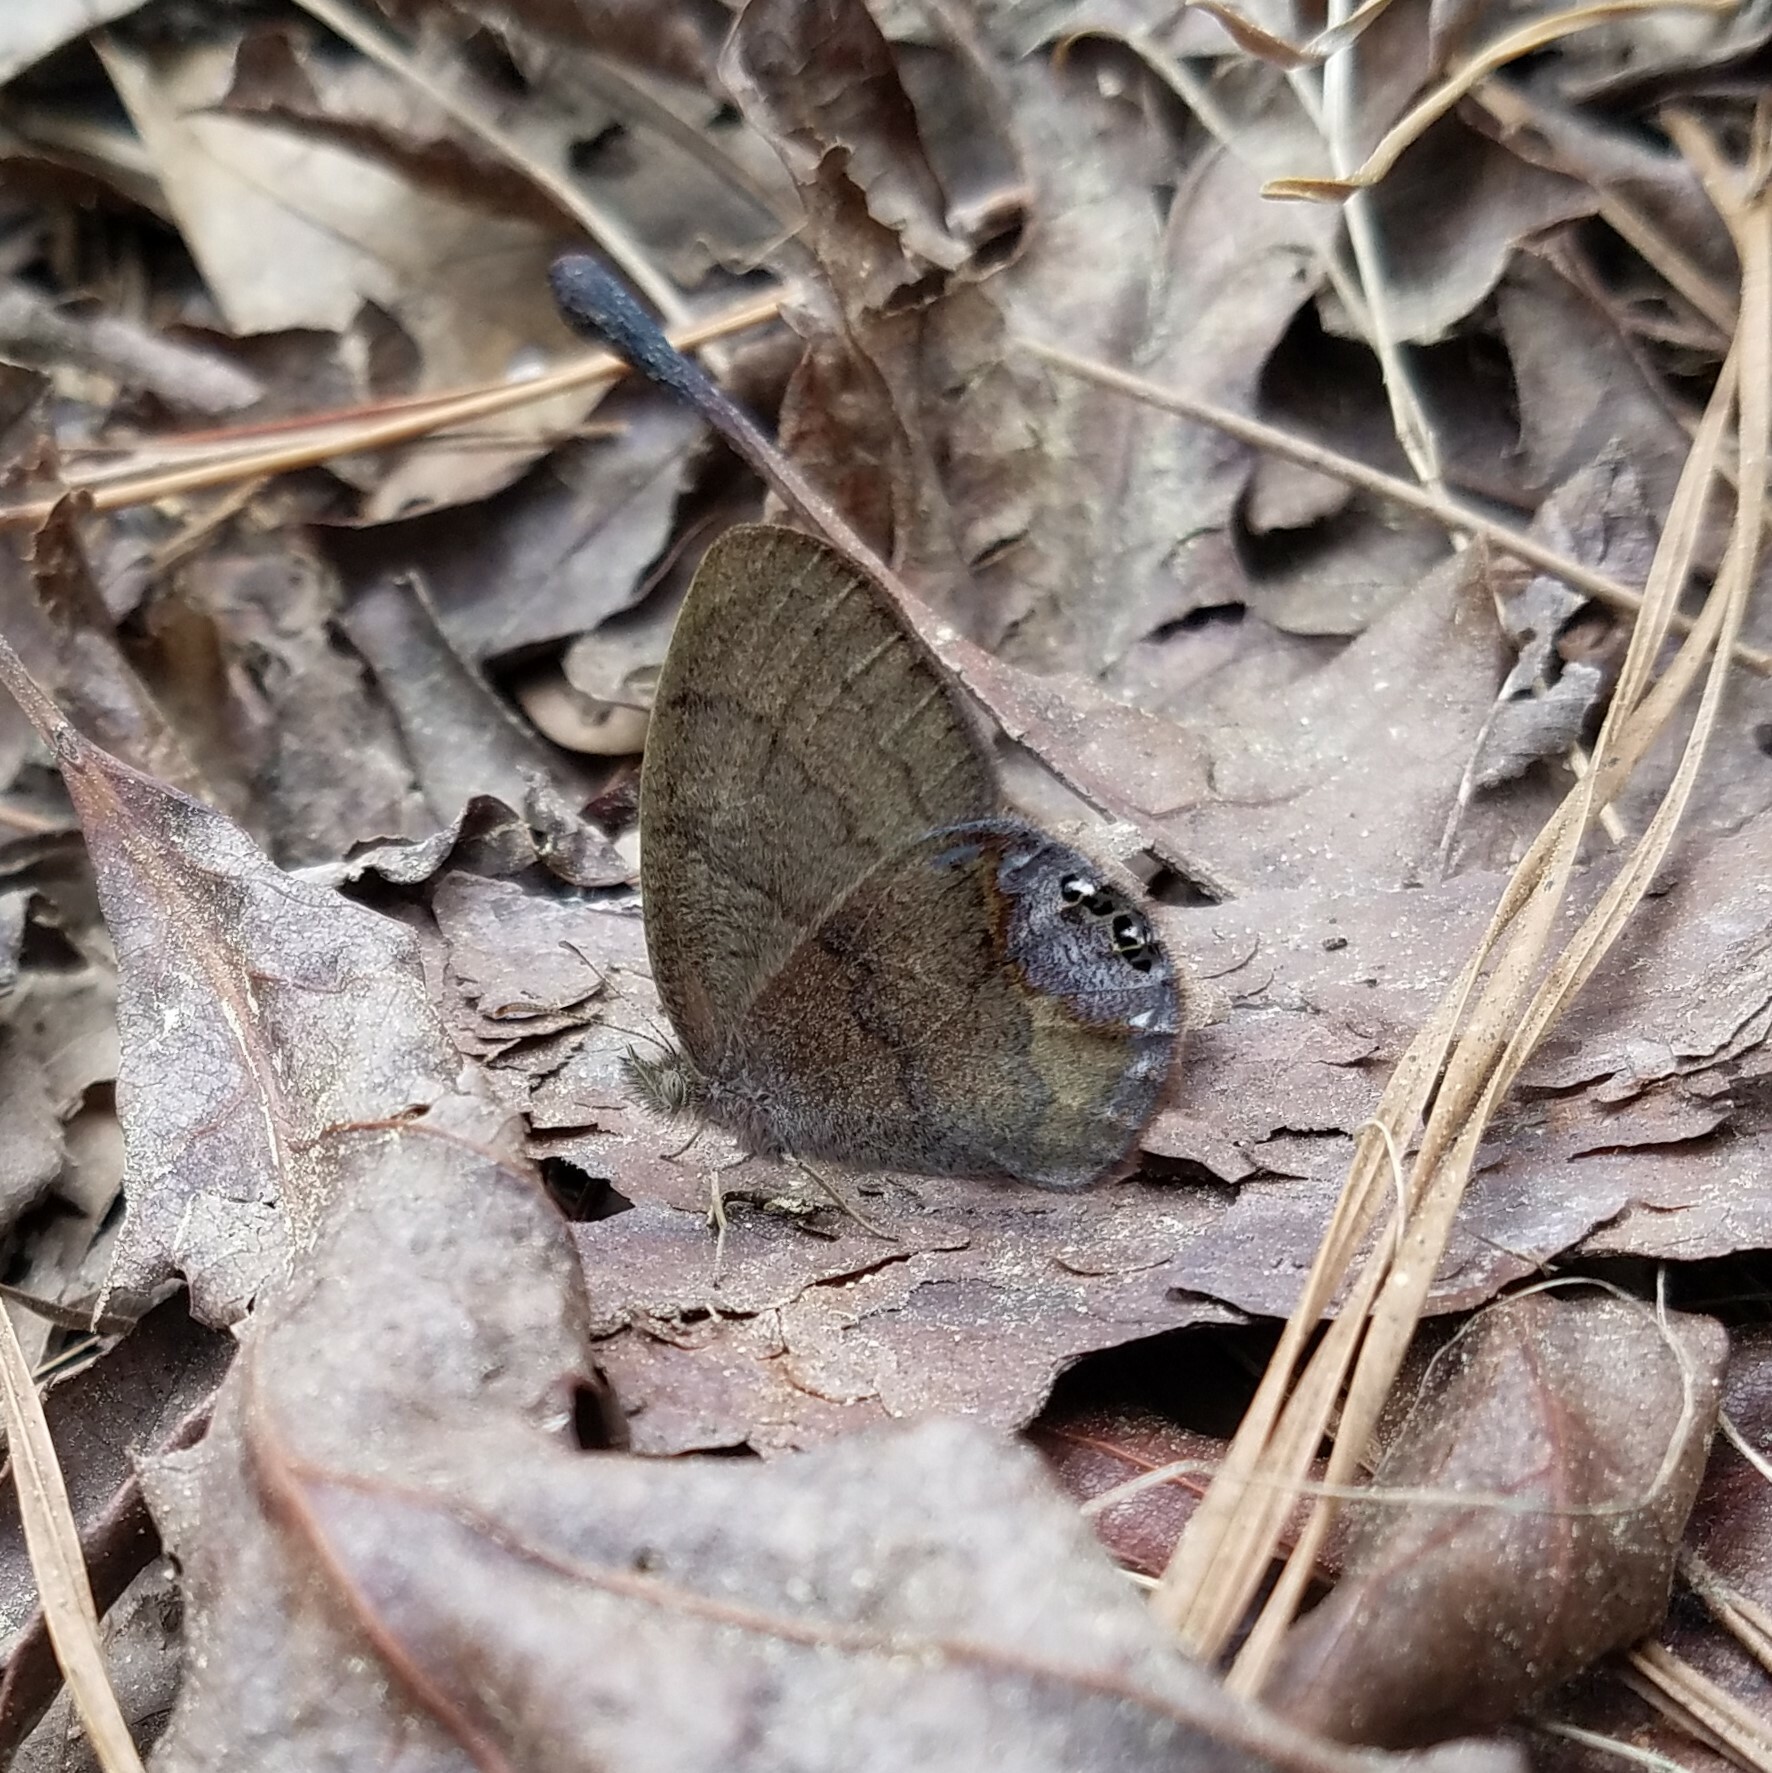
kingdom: Animalia
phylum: Arthropoda
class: Insecta
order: Lepidoptera
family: Nymphalidae
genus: Euptychia
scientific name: Euptychia cornelius
